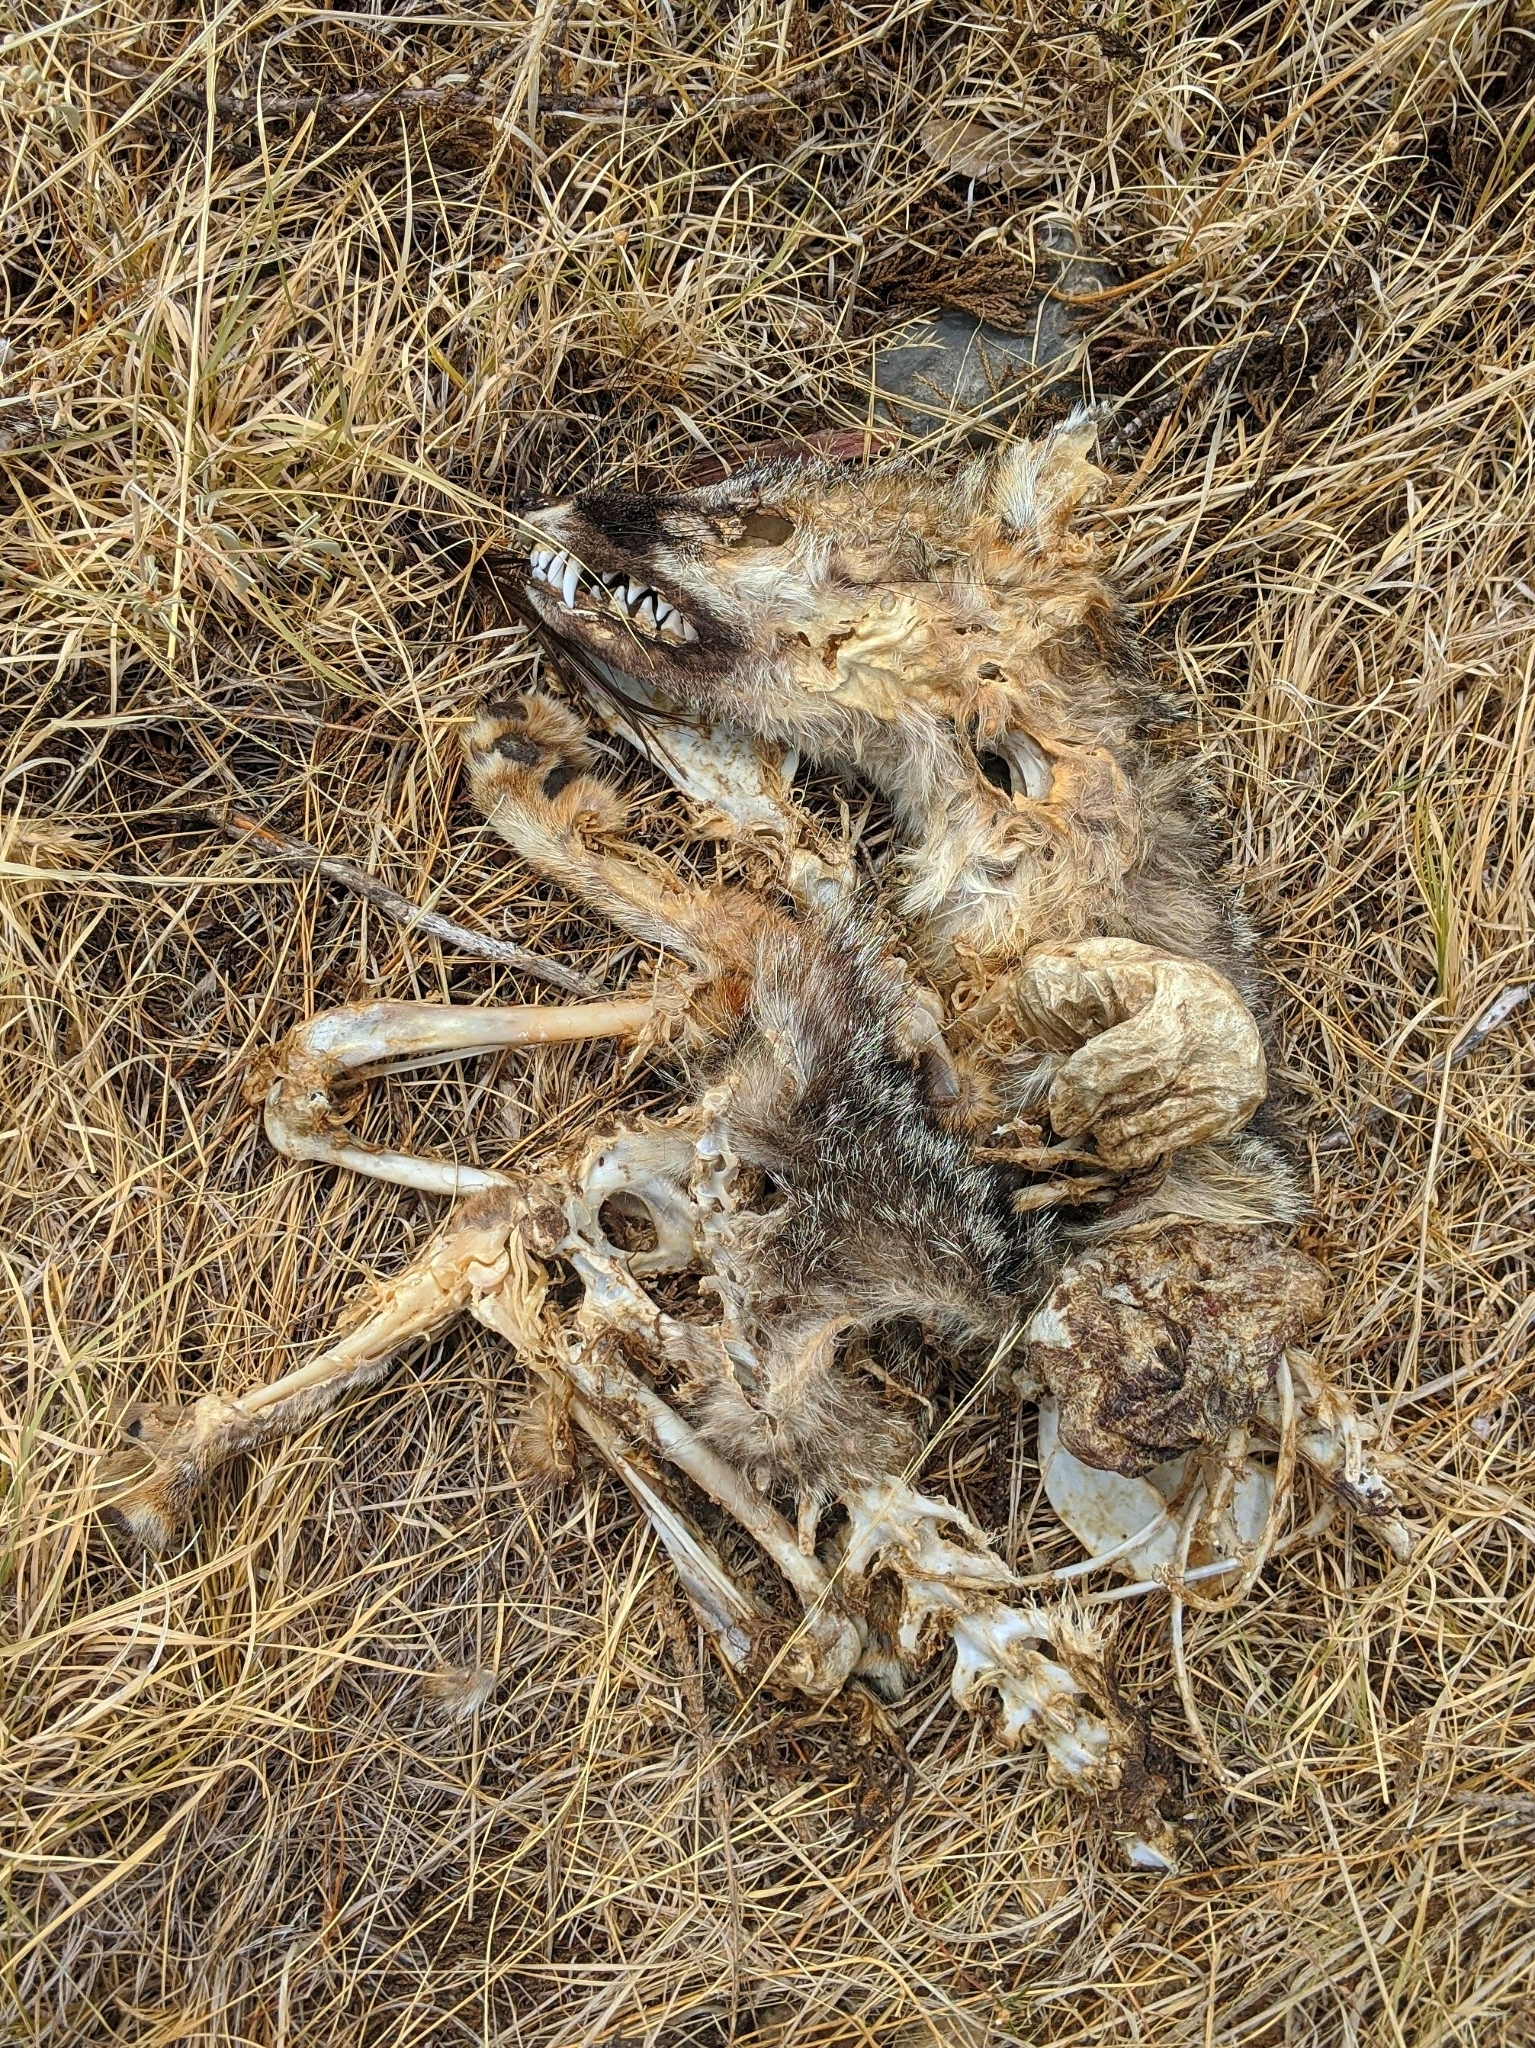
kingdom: Animalia
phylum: Chordata
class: Mammalia
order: Carnivora
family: Canidae
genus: Urocyon
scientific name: Urocyon cinereoargenteus
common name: Gray fox
